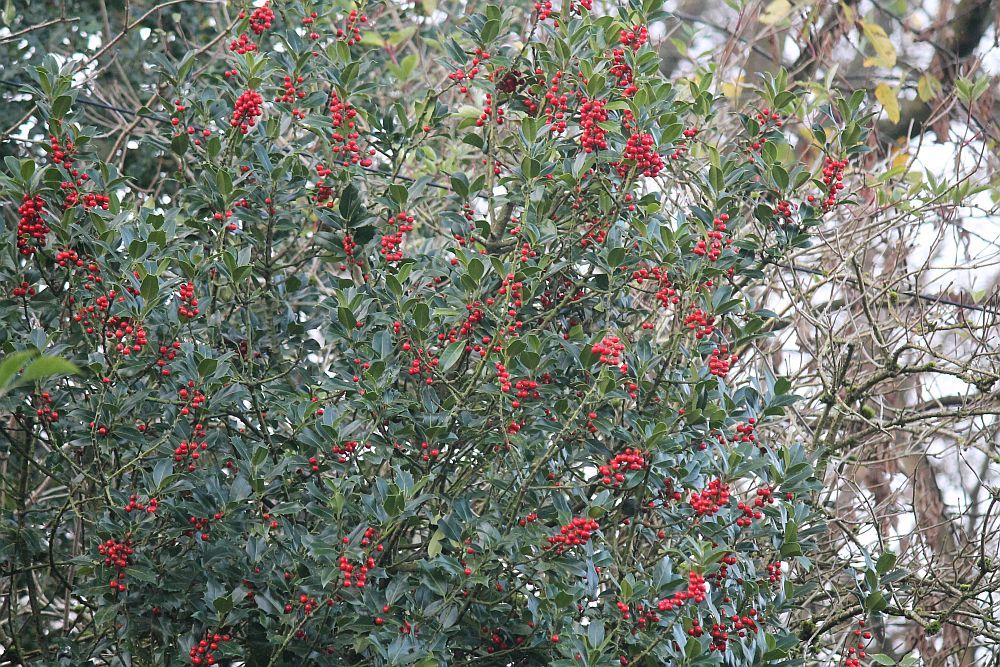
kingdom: Plantae
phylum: Tracheophyta
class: Magnoliopsida
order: Aquifoliales
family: Aquifoliaceae
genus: Ilex
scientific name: Ilex aquifolium
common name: English holly
